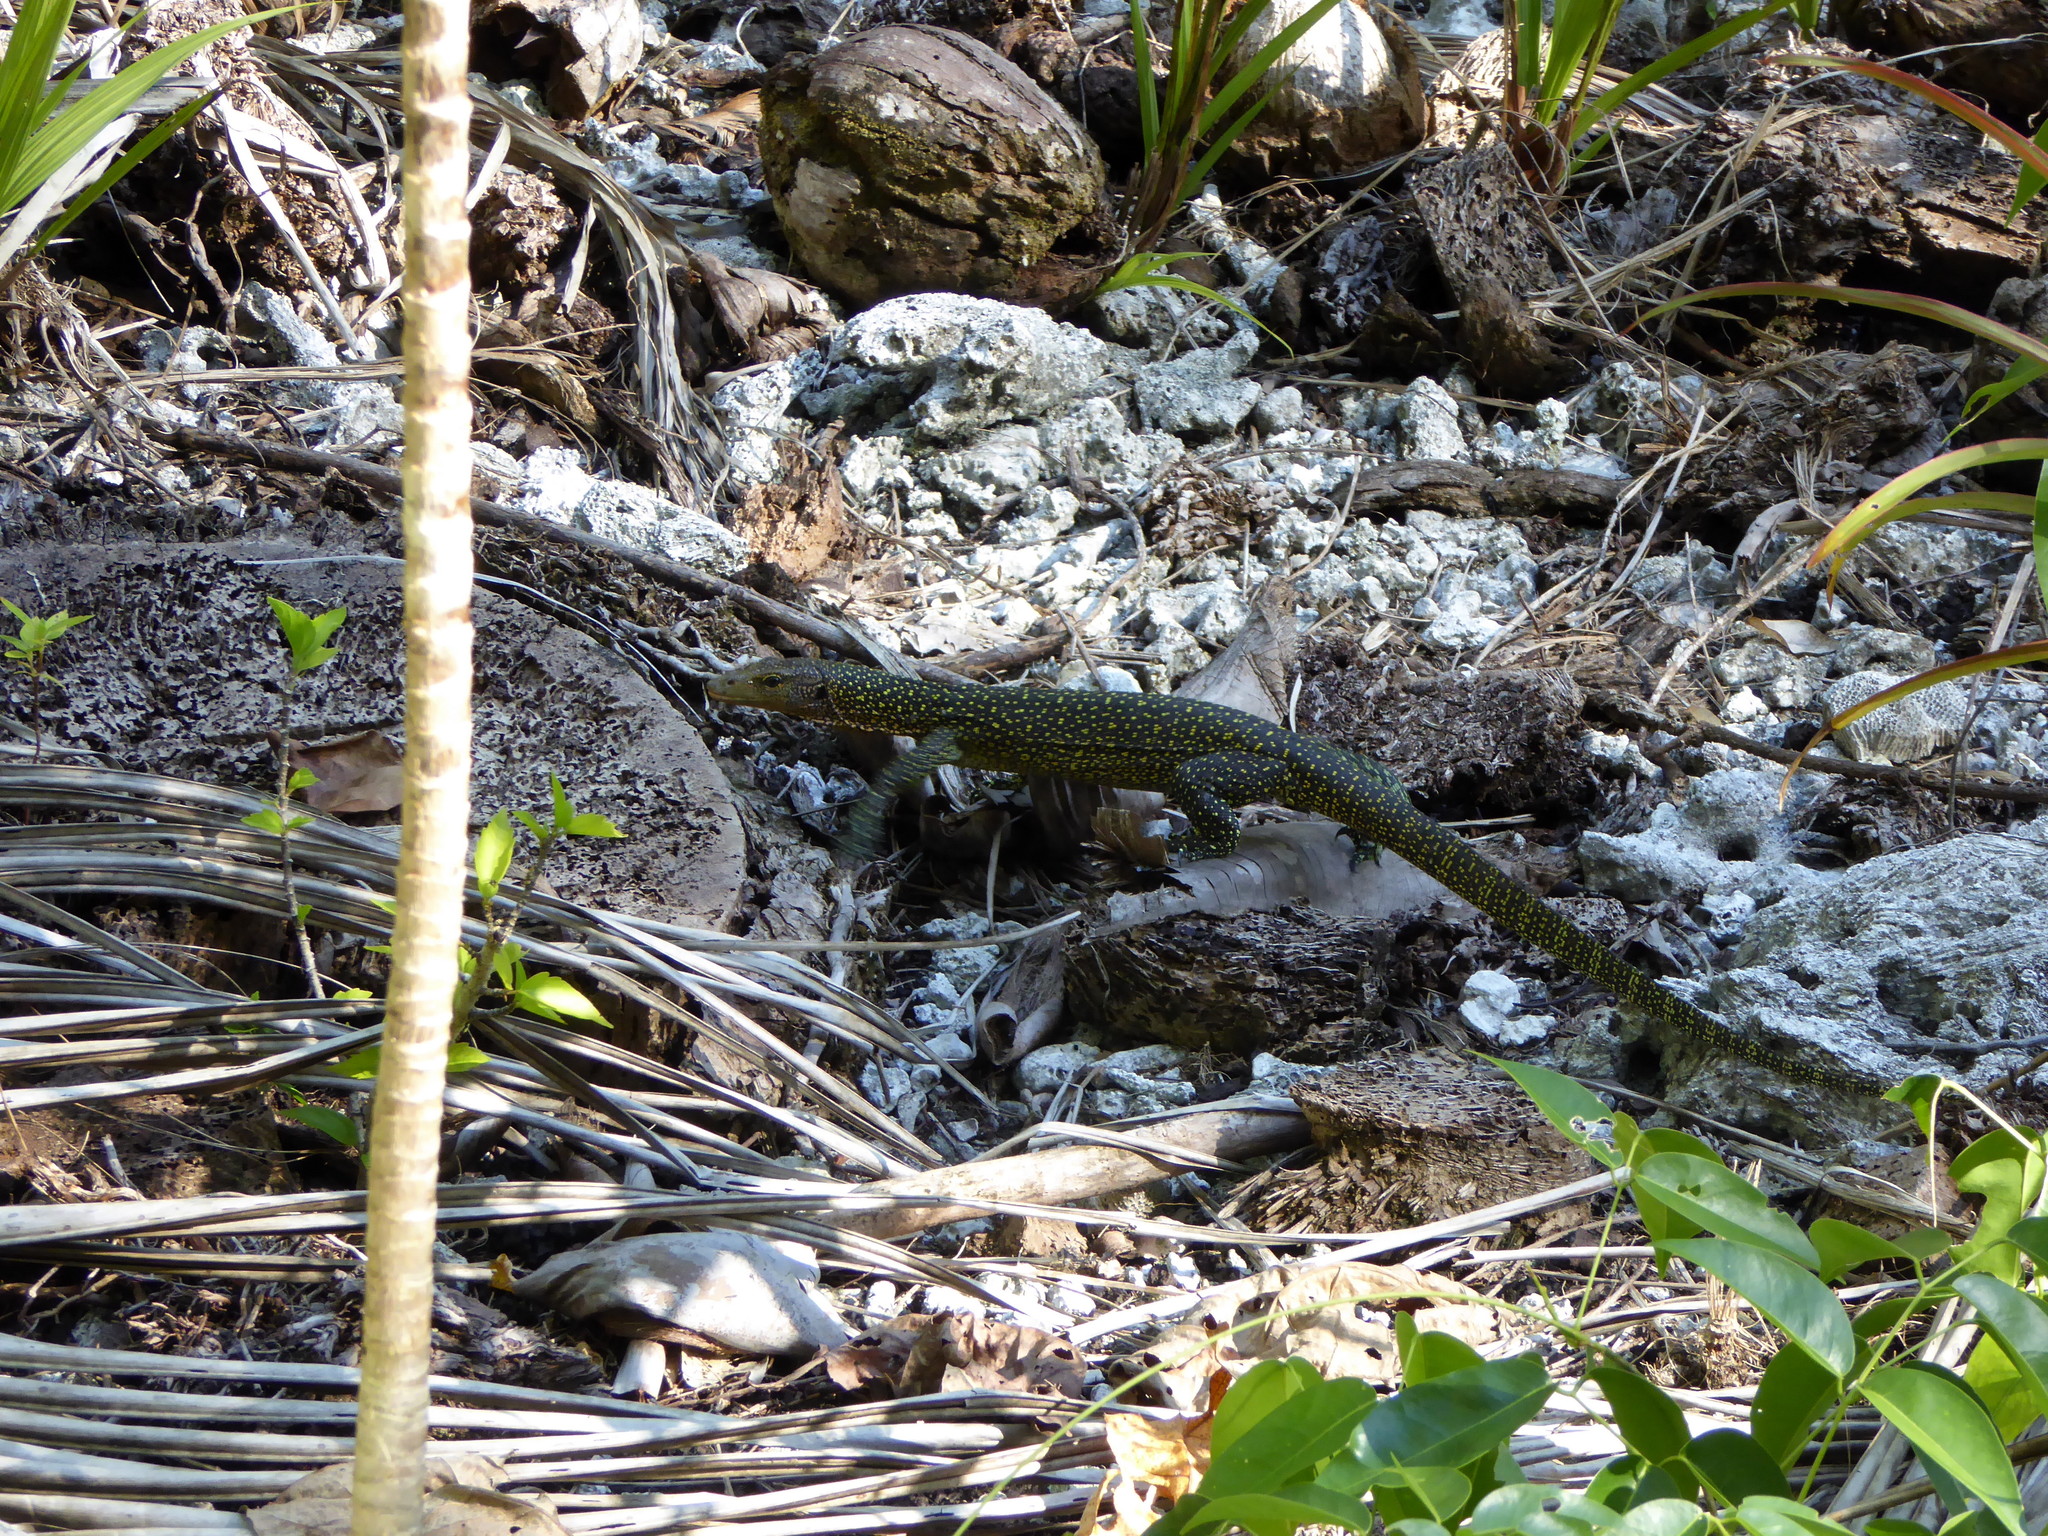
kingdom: Animalia
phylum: Chordata
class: Squamata
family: Varanidae
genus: Varanus
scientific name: Varanus indicus
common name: Mangrove monitor
